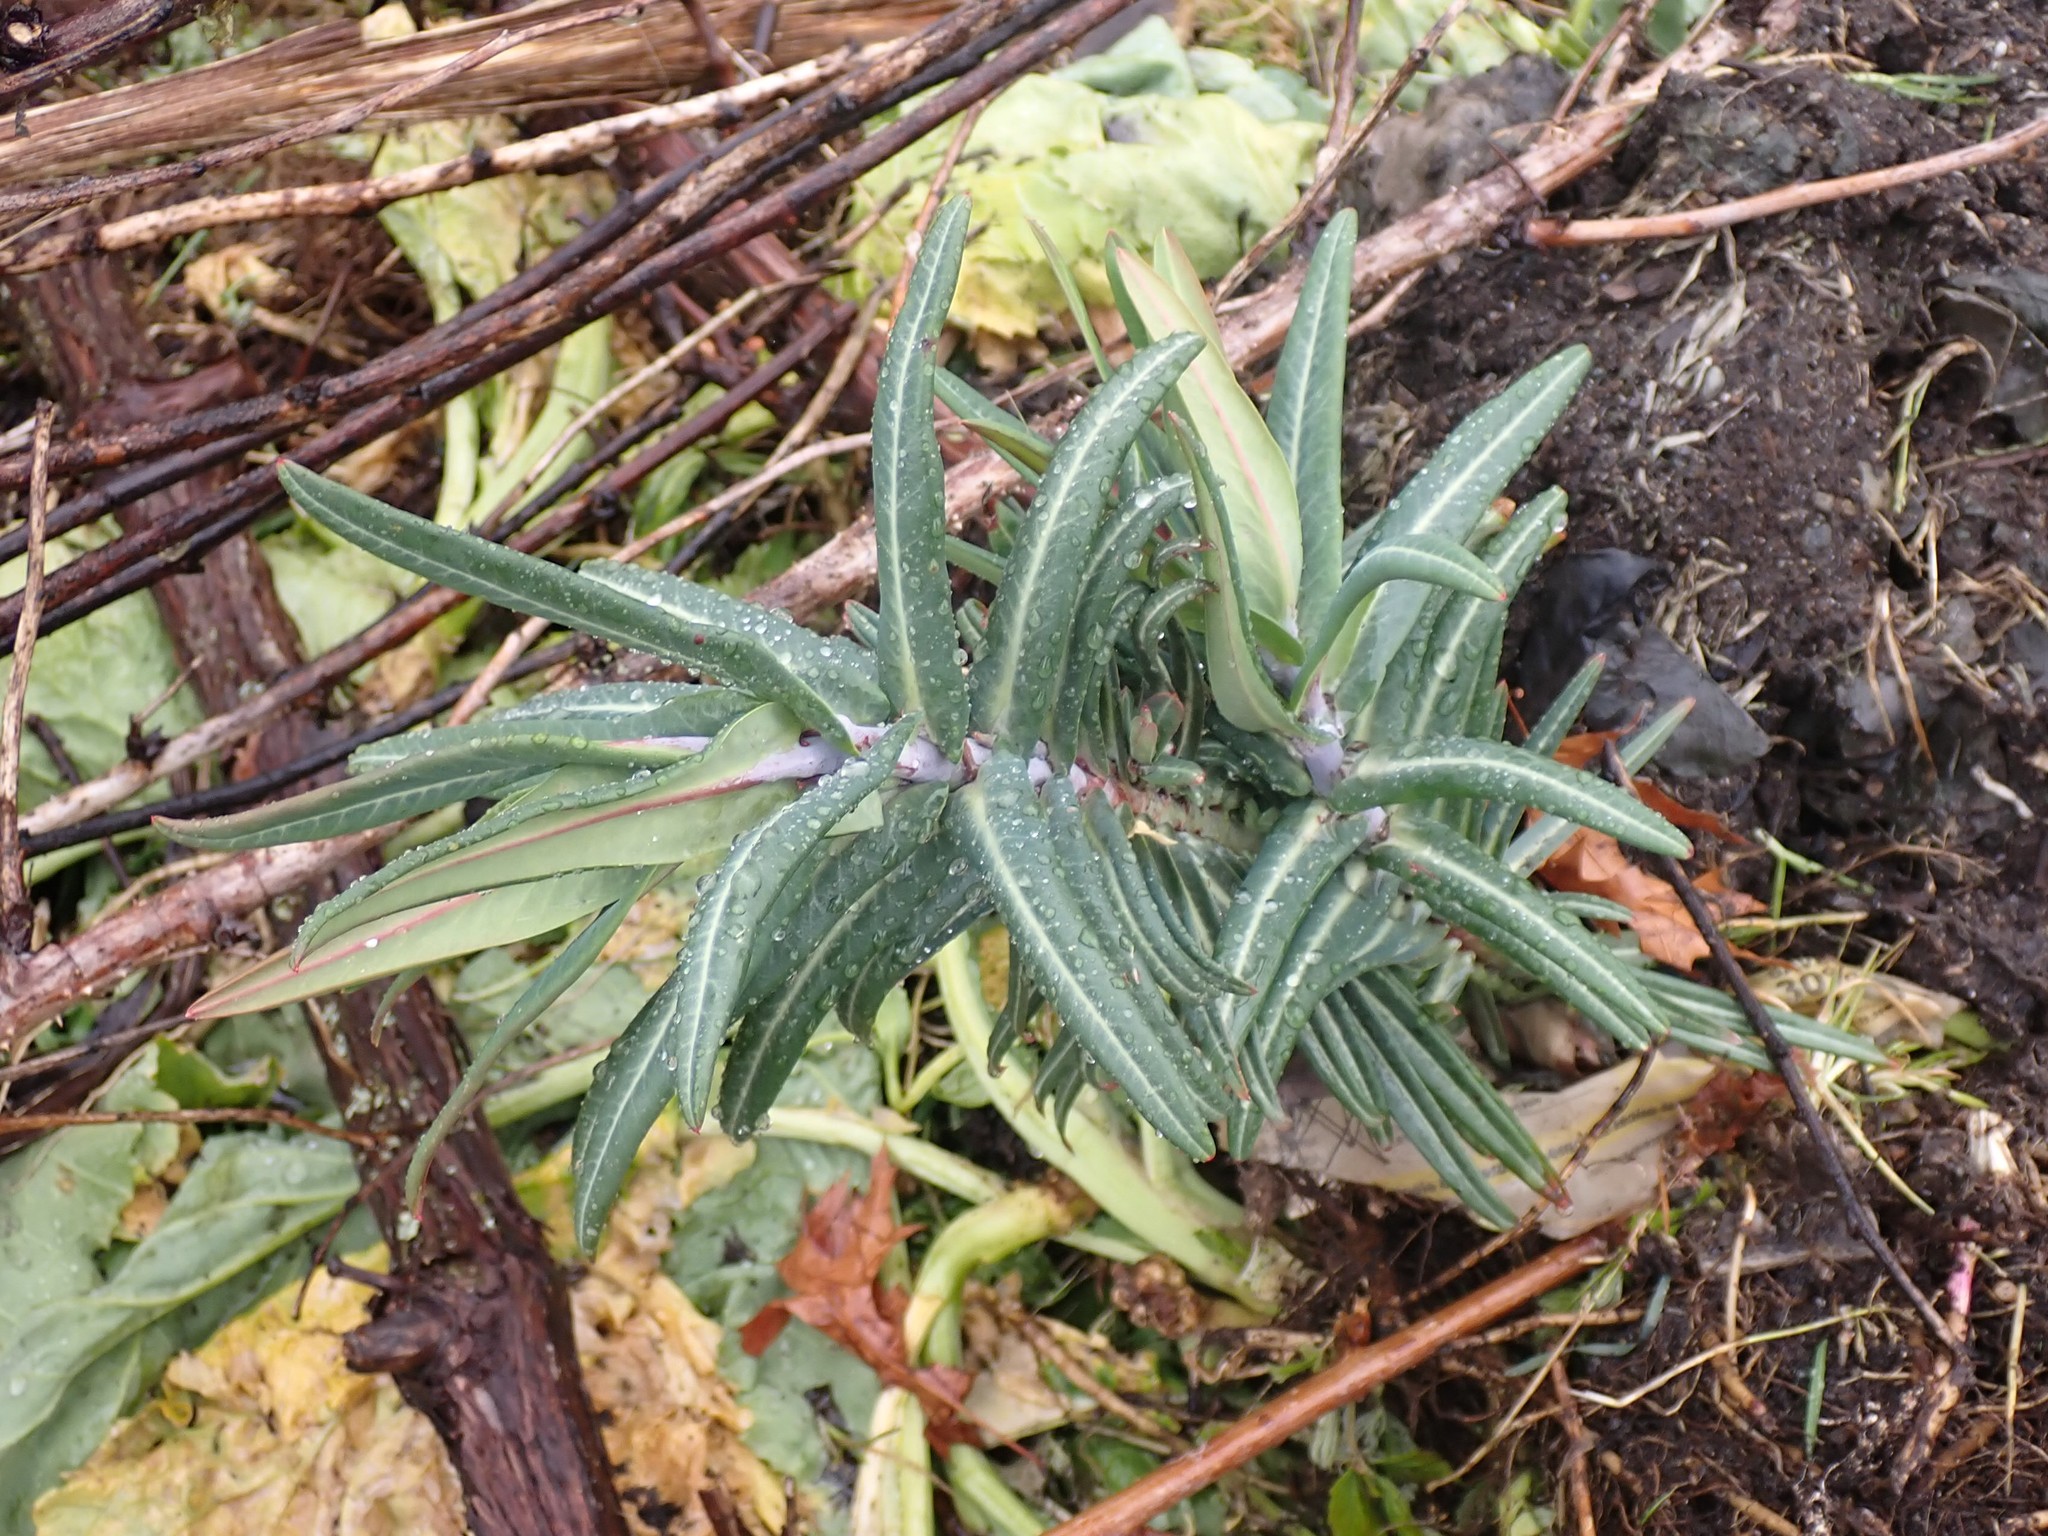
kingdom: Plantae
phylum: Tracheophyta
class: Magnoliopsida
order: Malpighiales
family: Euphorbiaceae
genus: Euphorbia
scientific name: Euphorbia lathyris
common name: Caper spurge
